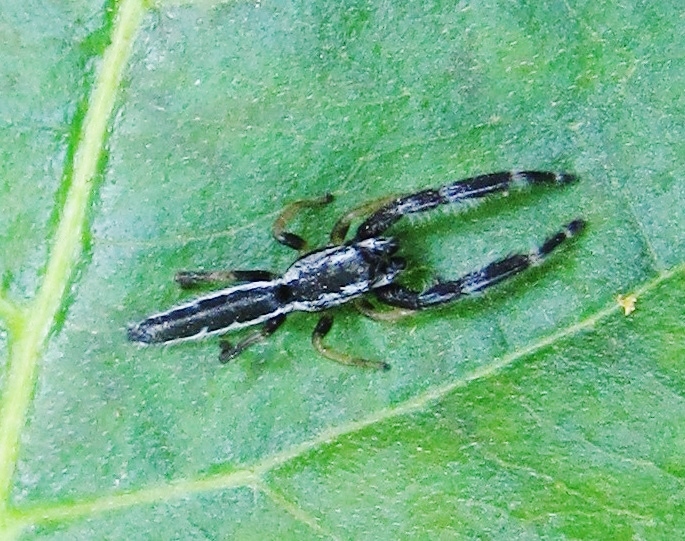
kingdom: Animalia
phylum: Arthropoda
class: Arachnida
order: Araneae
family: Salticidae
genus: Marpissa
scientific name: Marpissa pikei
